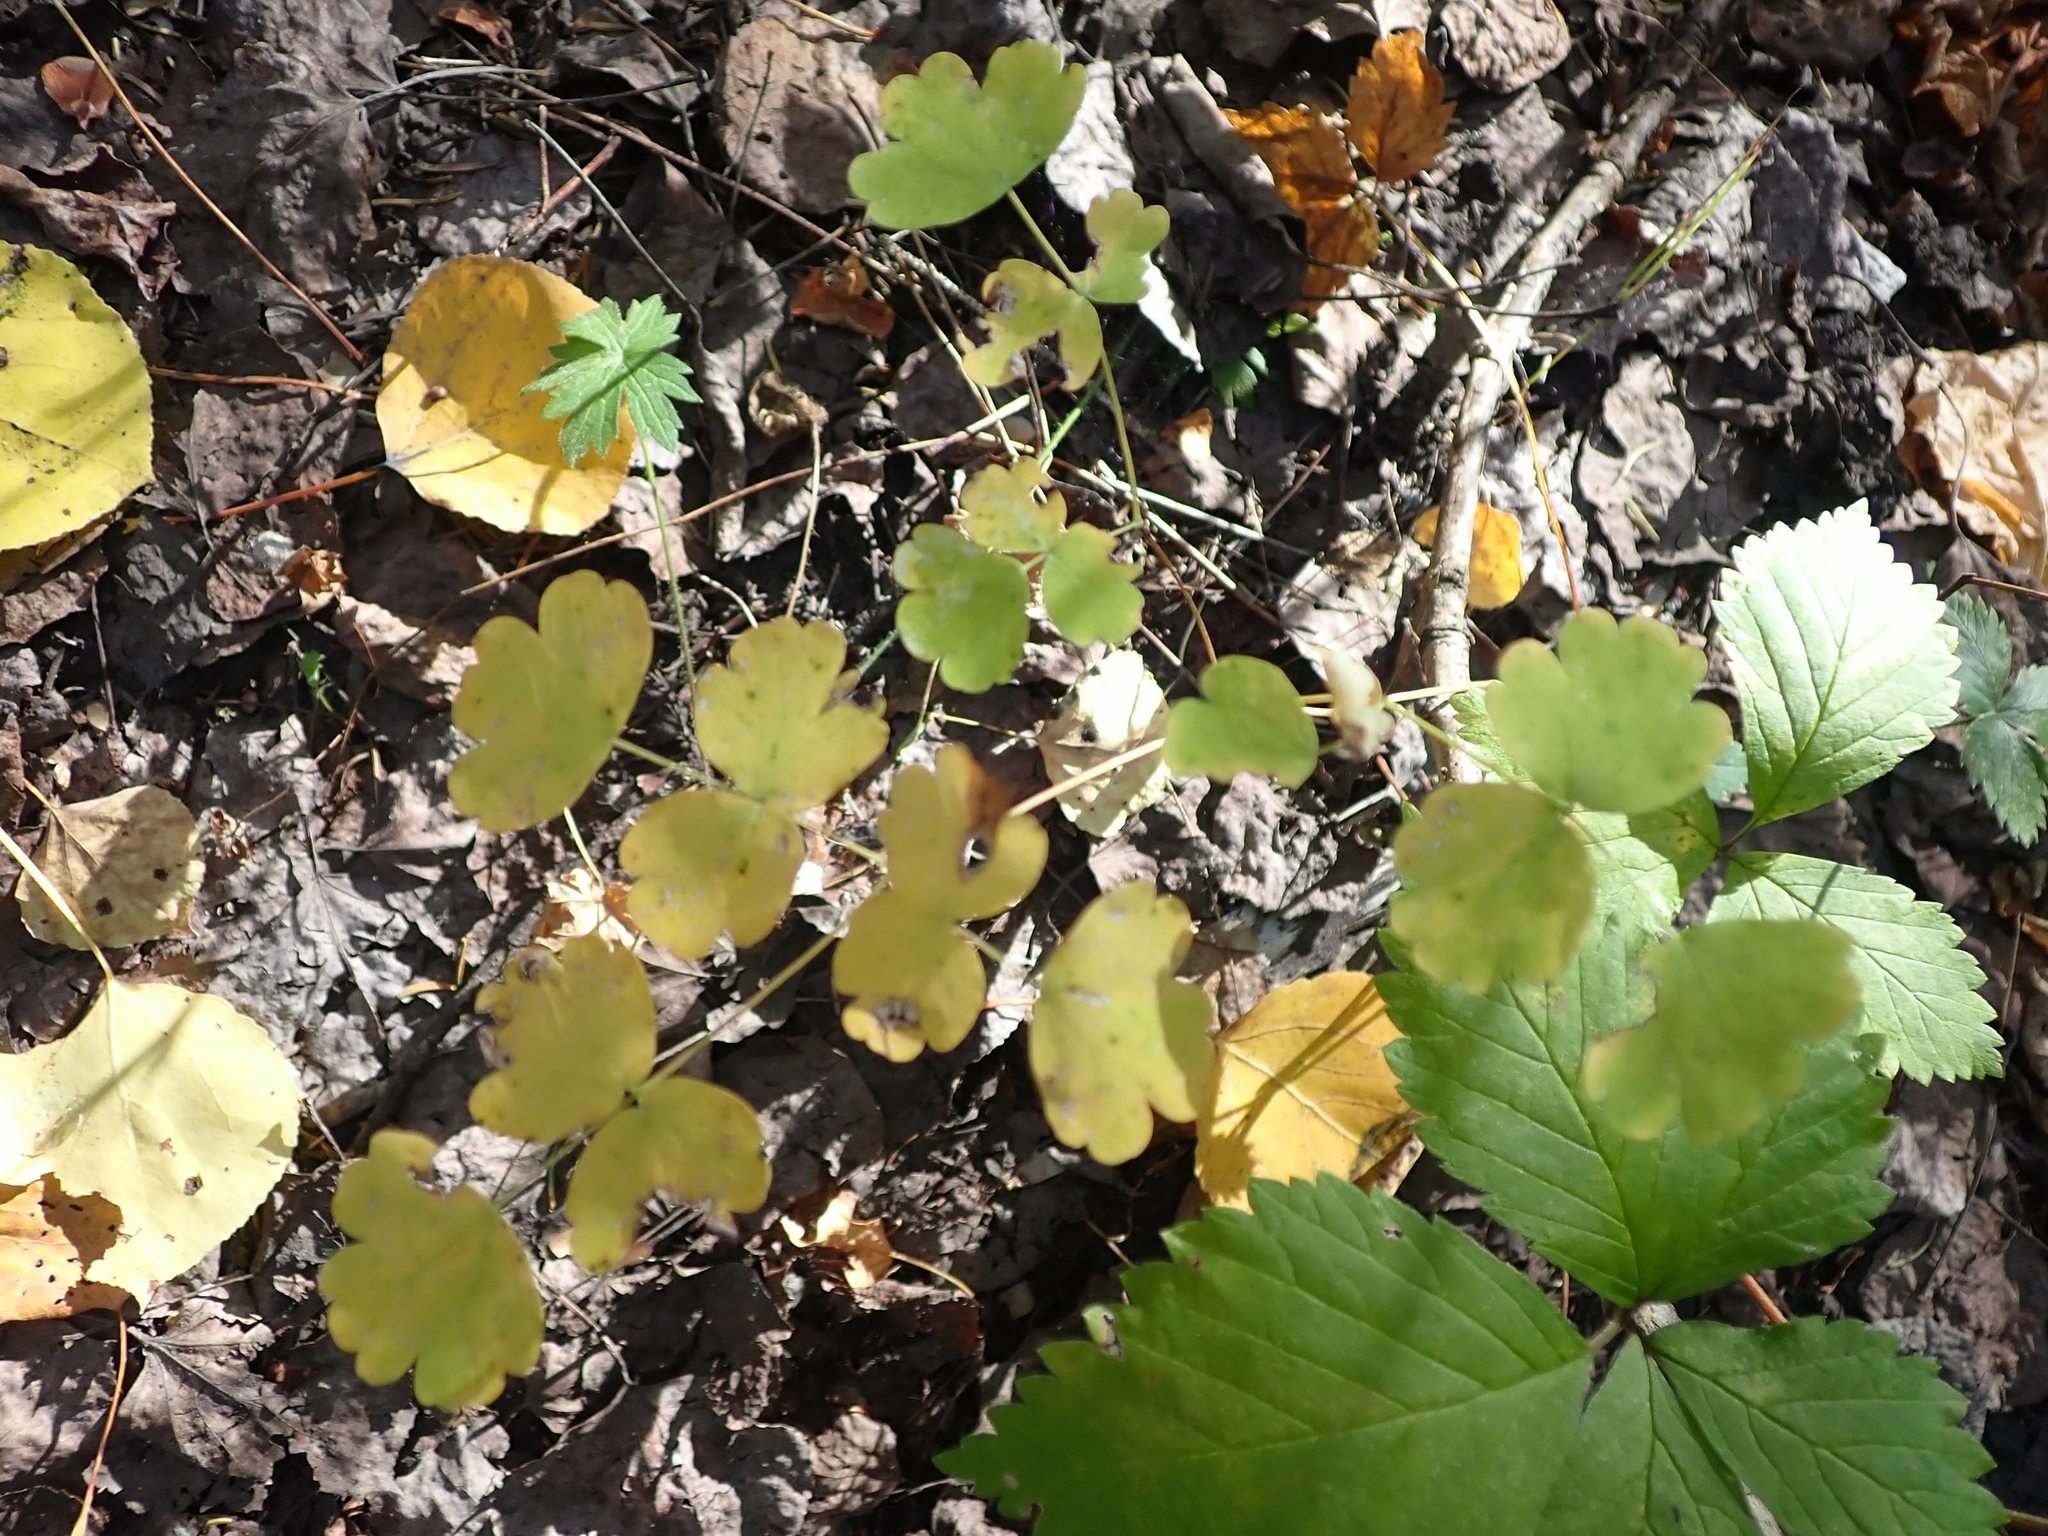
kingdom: Plantae
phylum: Tracheophyta
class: Magnoliopsida
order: Ranunculales
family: Ranunculaceae
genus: Thalictrum
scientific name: Thalictrum venulosum
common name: Early meadow-rue
